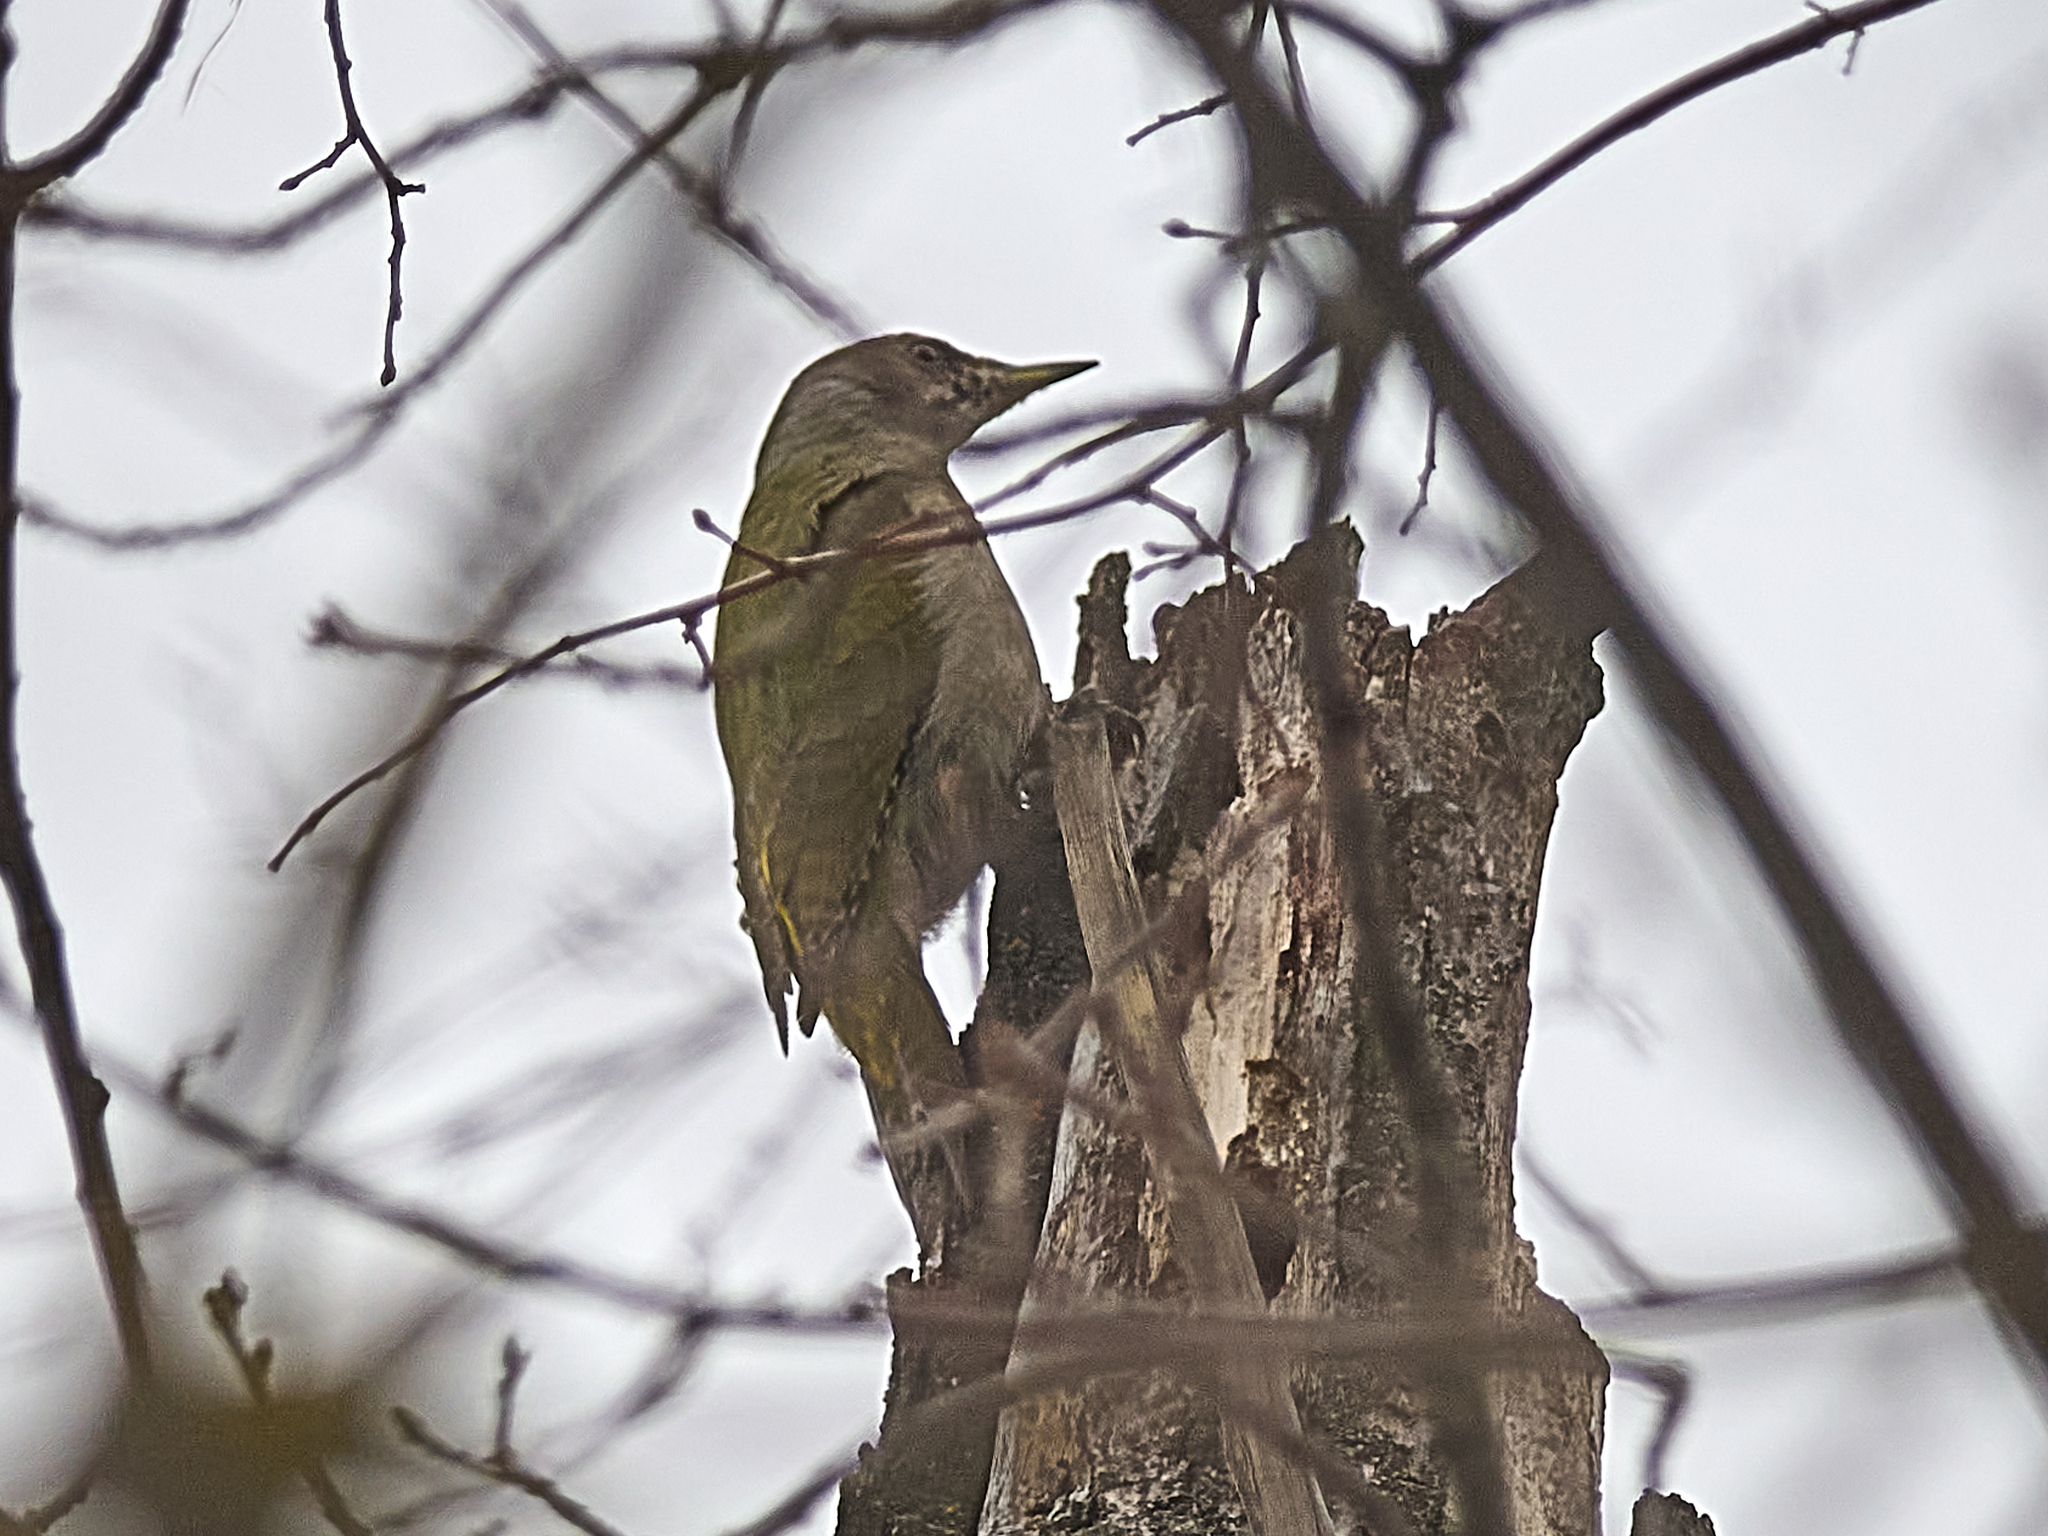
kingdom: Animalia
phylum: Chordata
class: Aves
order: Piciformes
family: Picidae
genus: Picus
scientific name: Picus canus
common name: Grey-headed woodpecker
